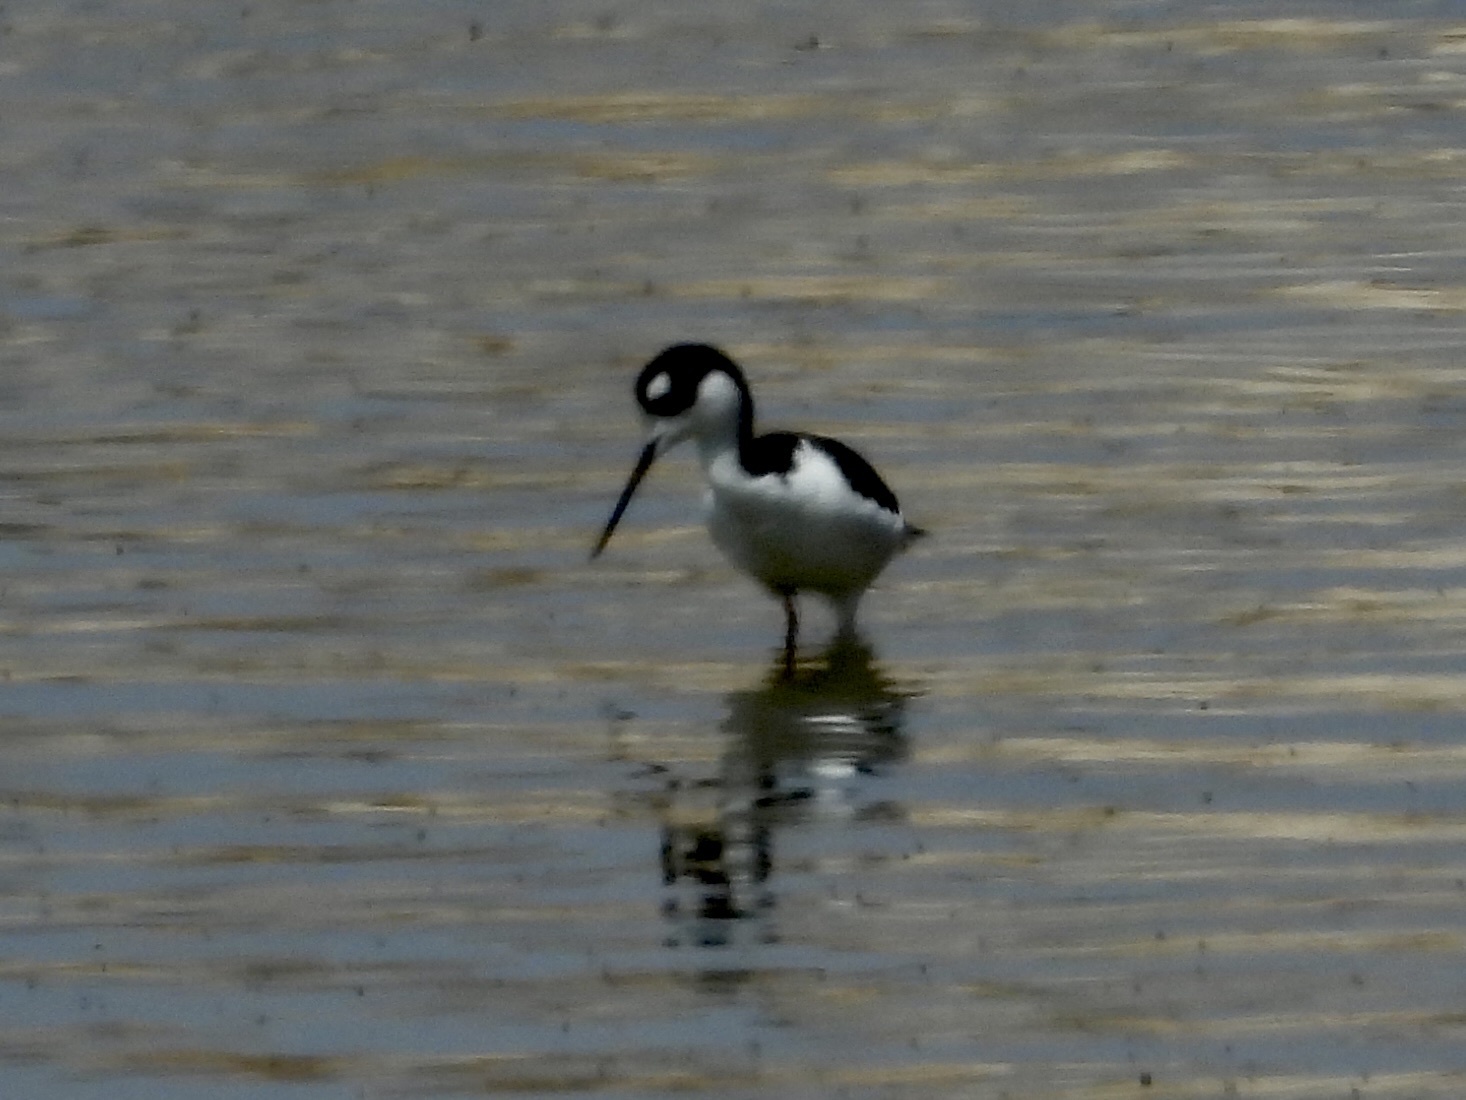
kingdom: Animalia
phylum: Chordata
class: Aves
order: Charadriiformes
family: Recurvirostridae
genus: Himantopus
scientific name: Himantopus mexicanus
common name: Black-necked stilt
